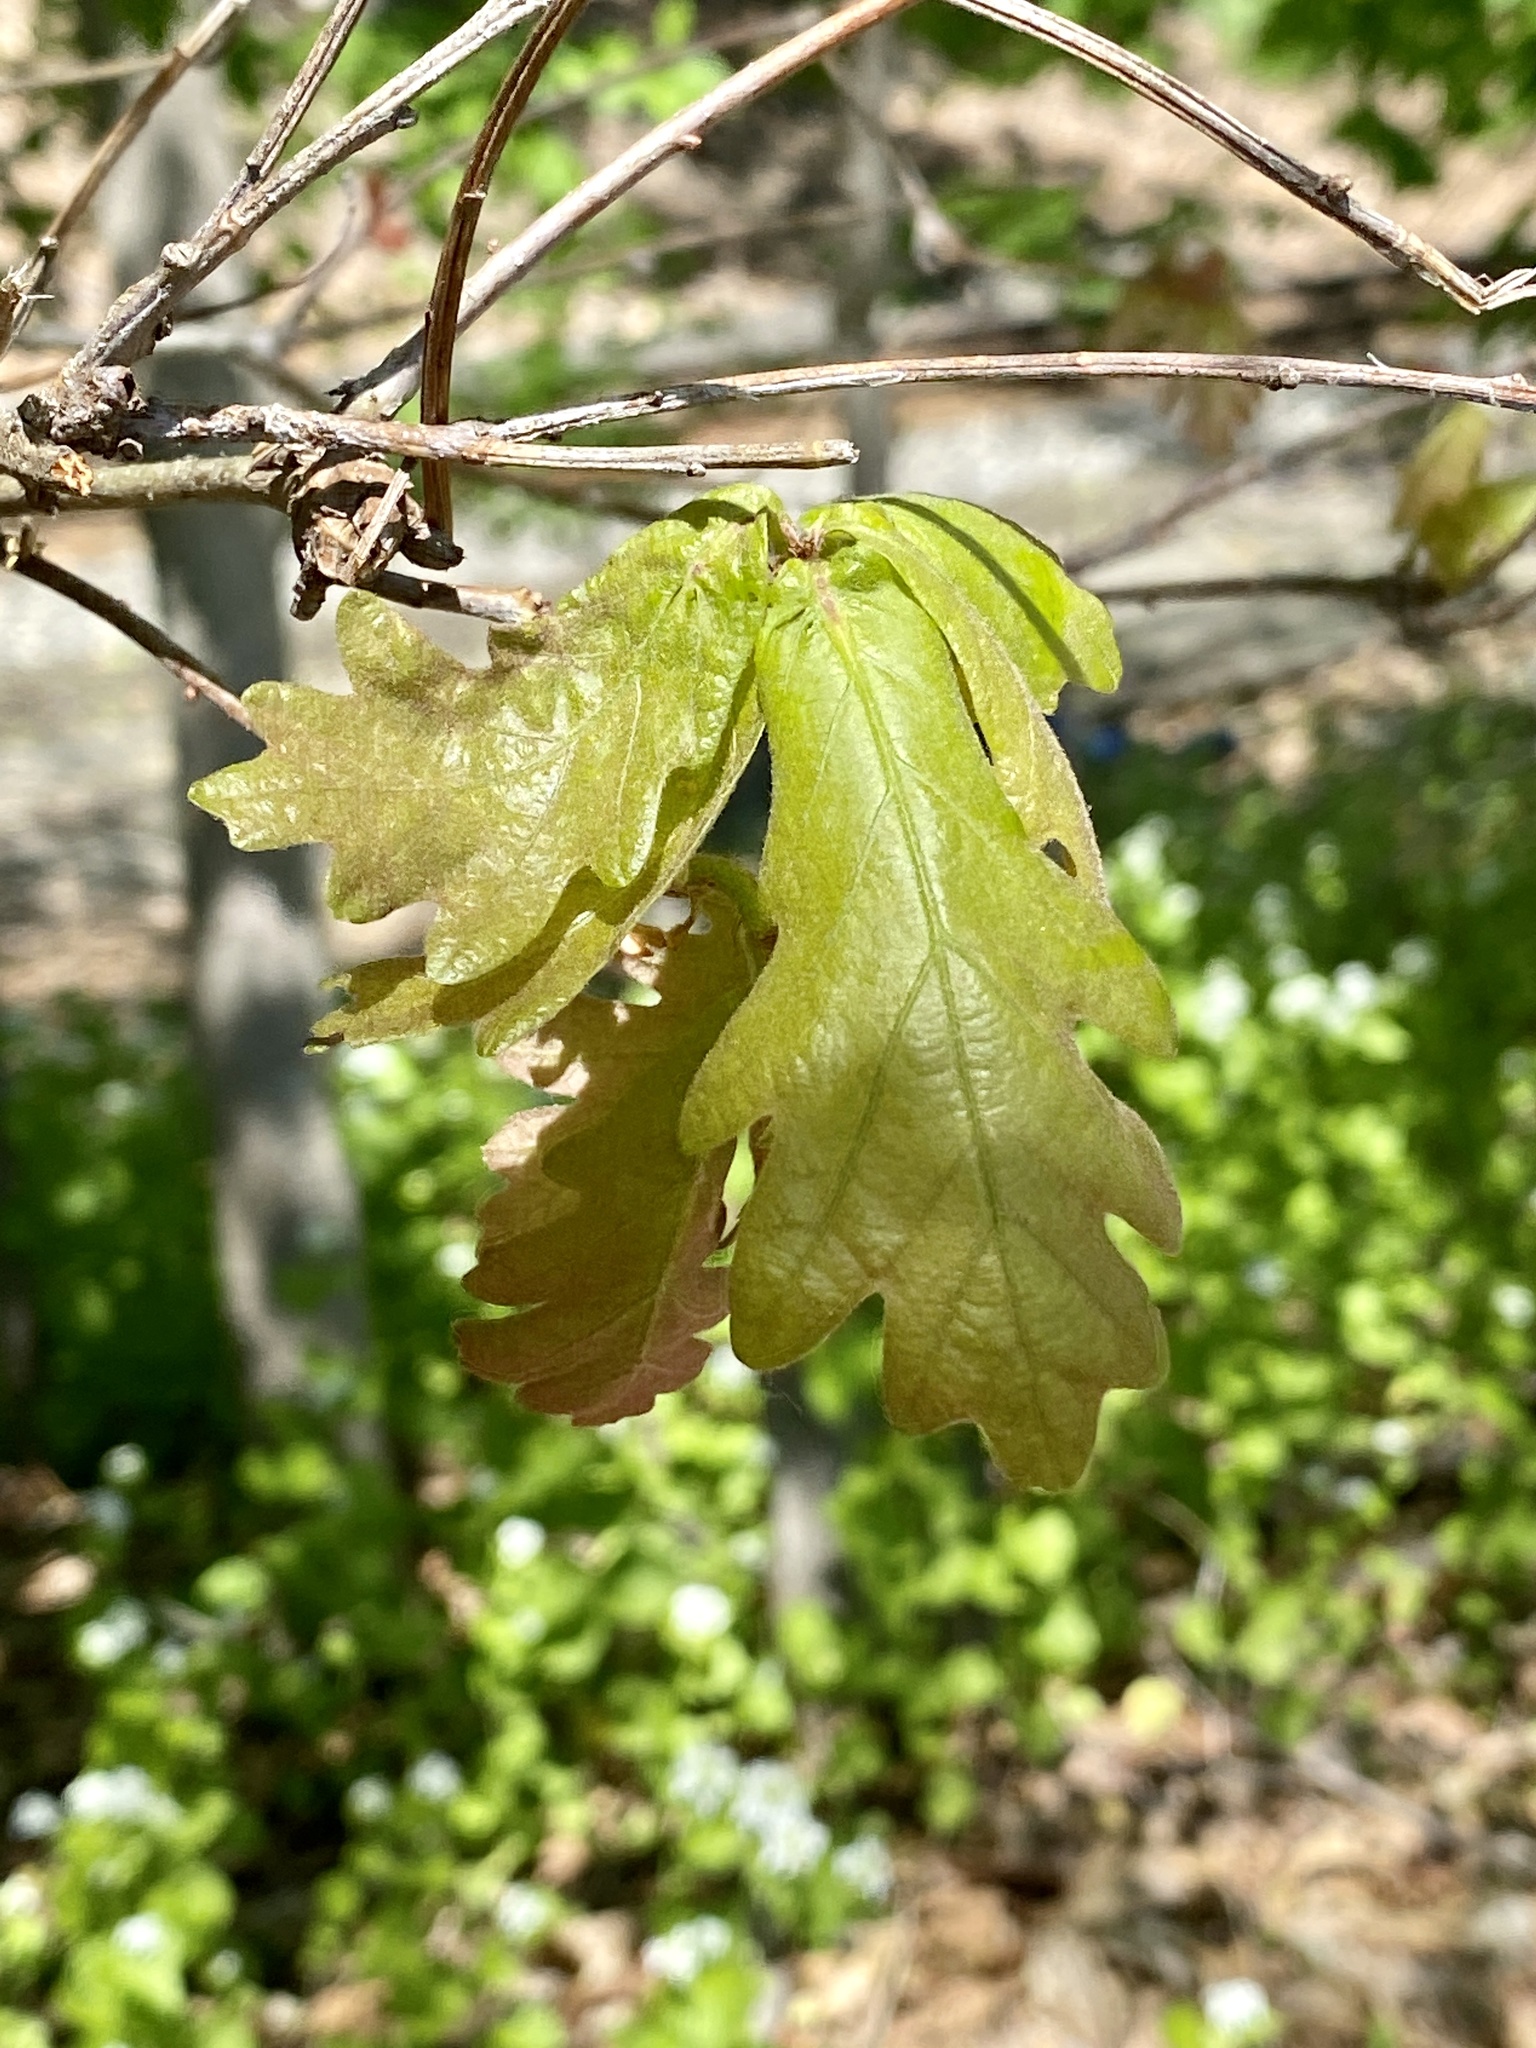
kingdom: Plantae
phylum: Tracheophyta
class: Magnoliopsida
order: Fagales
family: Fagaceae
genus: Quercus
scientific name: Quercus alba
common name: White oak
